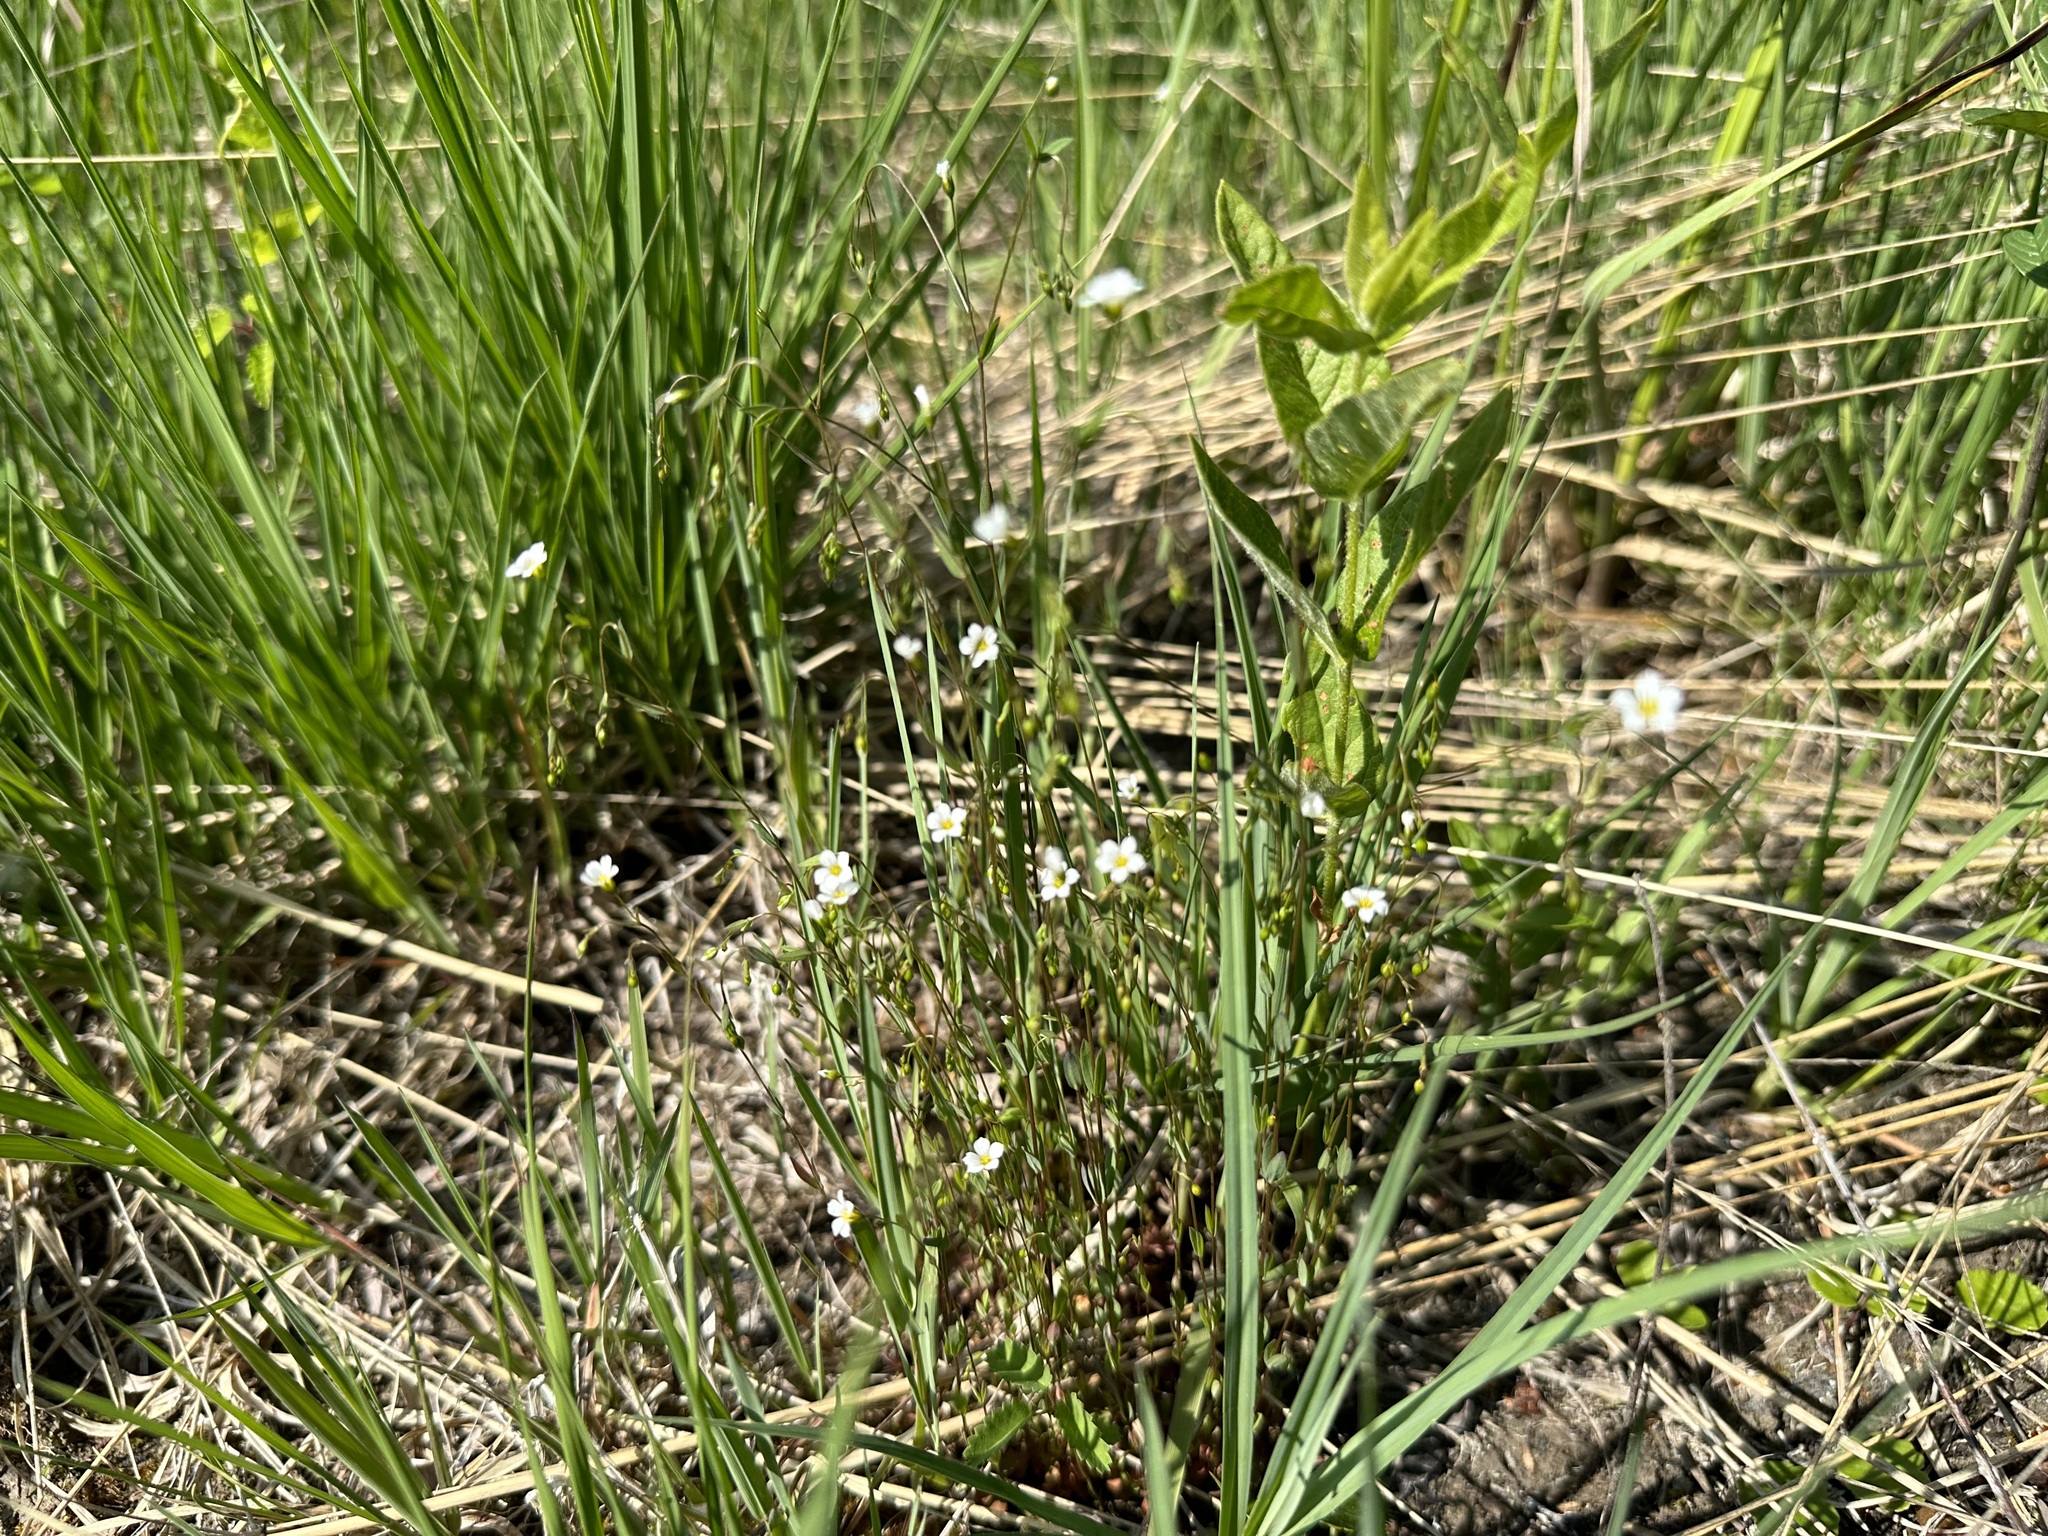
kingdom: Plantae
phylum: Tracheophyta
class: Magnoliopsida
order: Malpighiales
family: Linaceae
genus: Linum
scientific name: Linum catharticum
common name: Fairy flax
